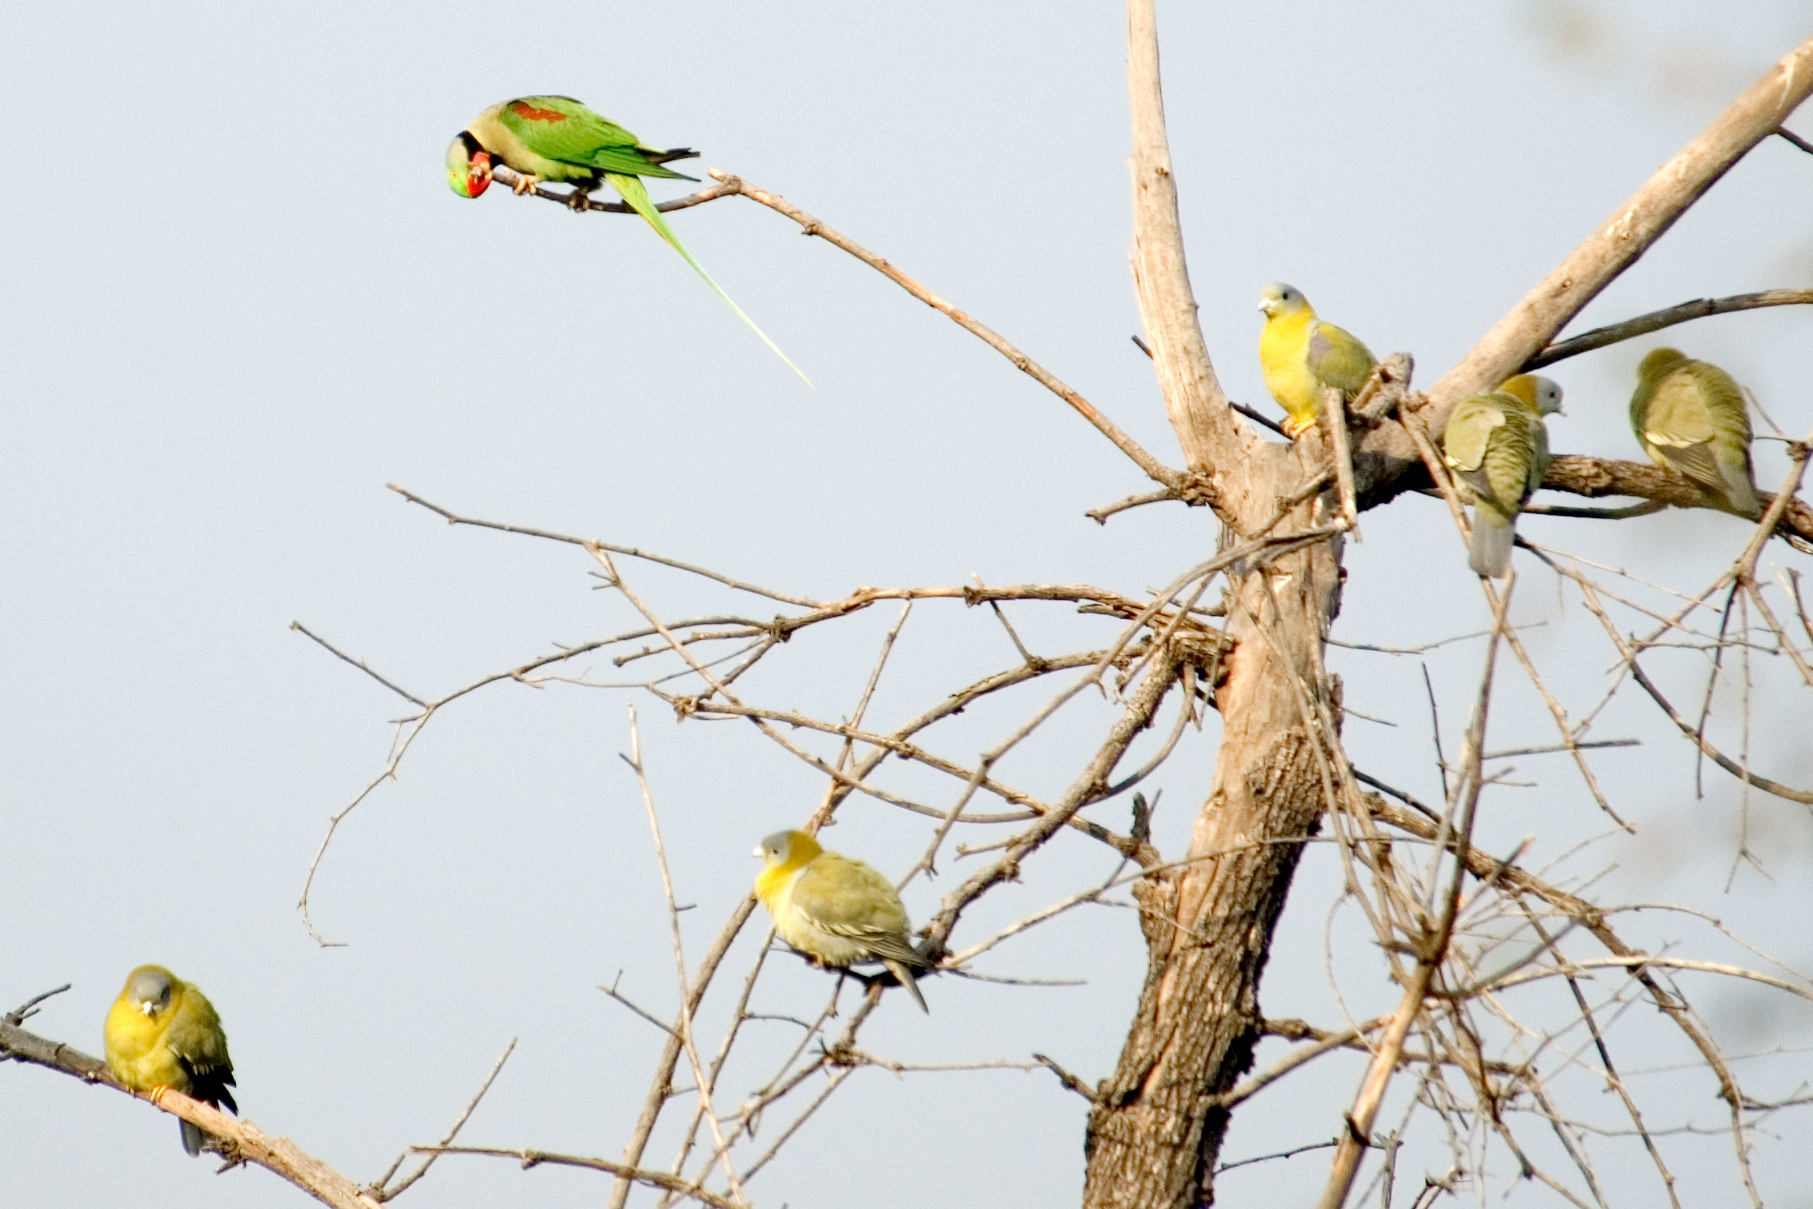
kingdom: Animalia
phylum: Chordata
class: Aves
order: Columbiformes
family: Columbidae
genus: Treron
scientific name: Treron phoenicopterus
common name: Yellow-footed green pigeon
